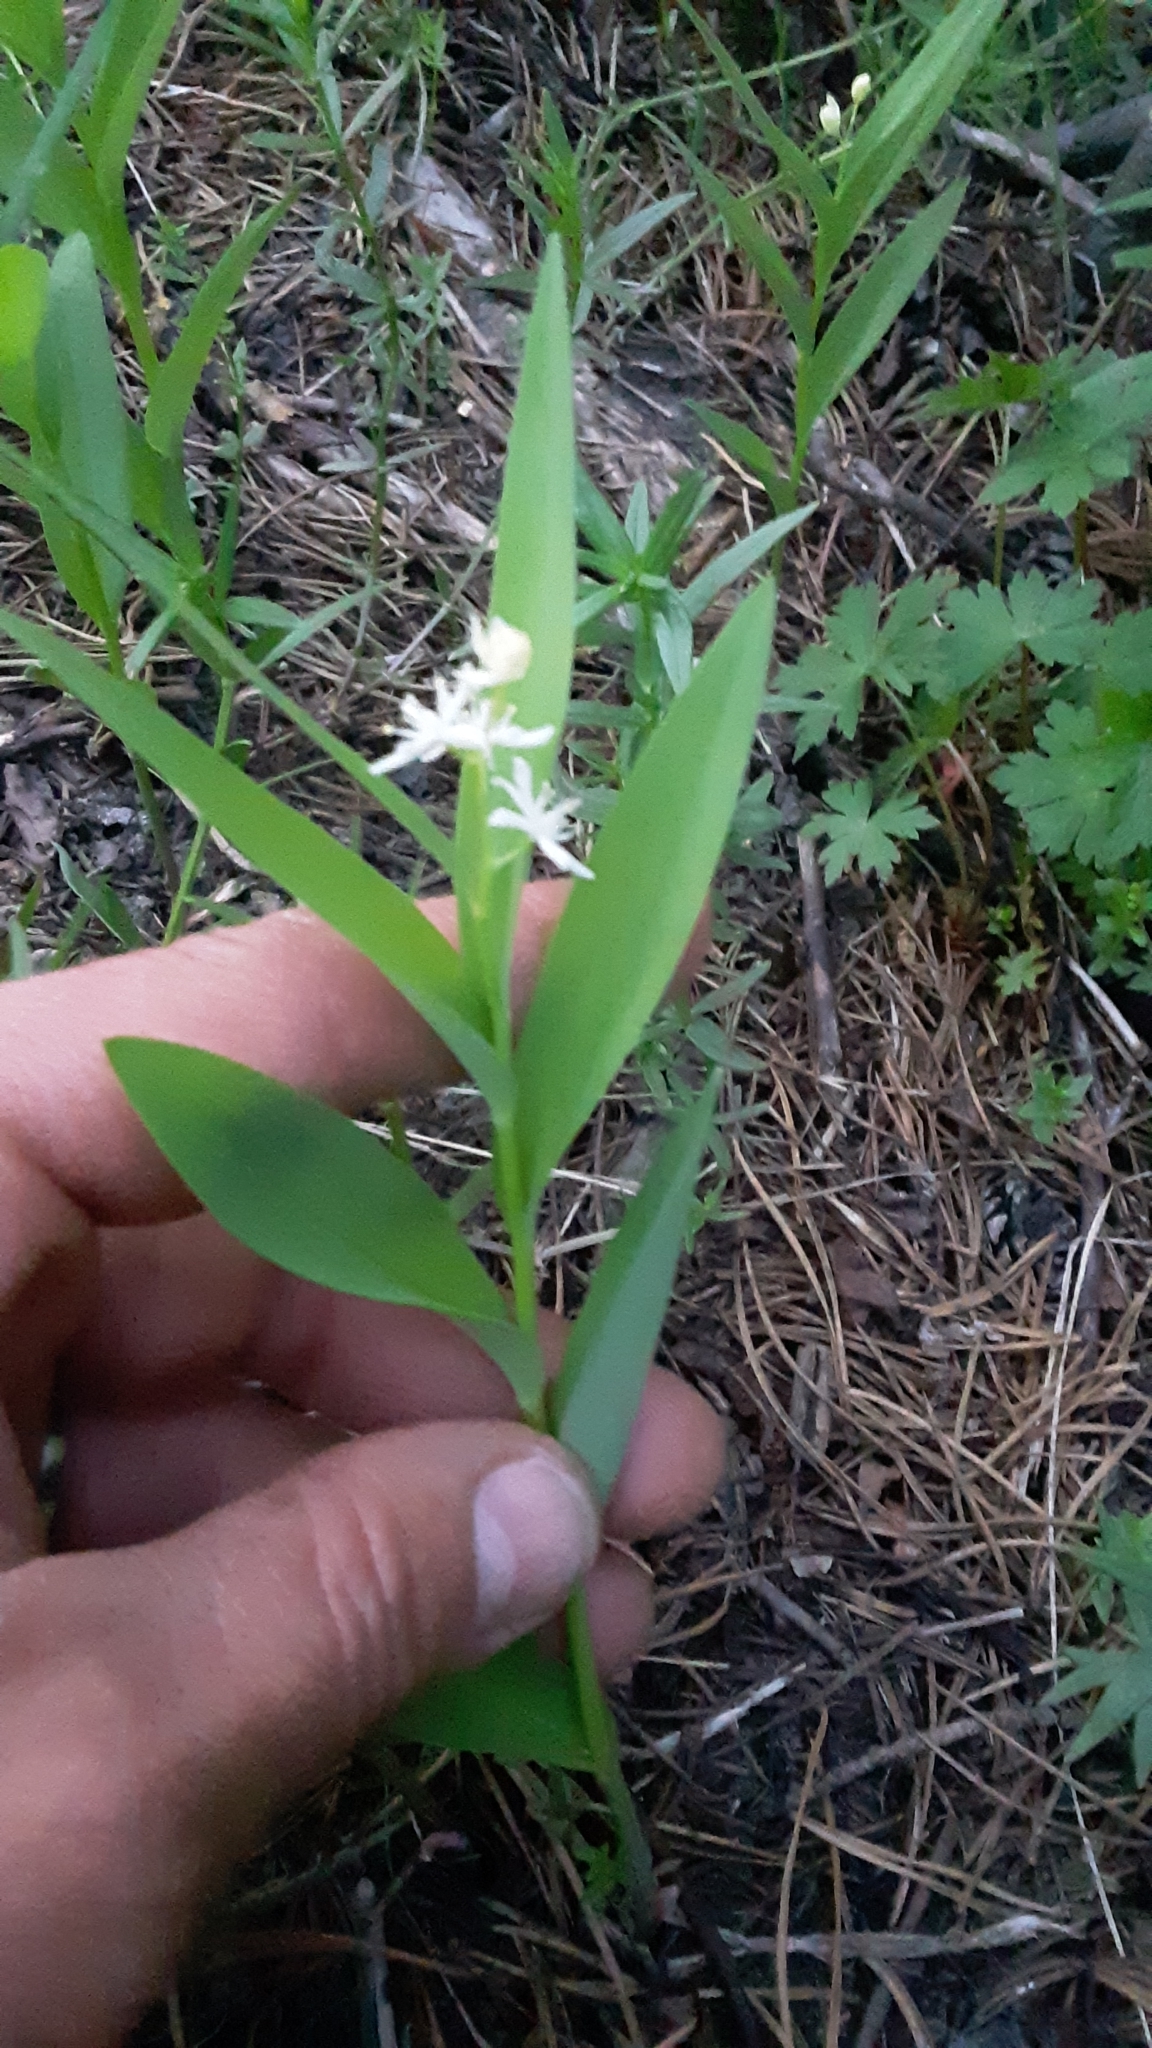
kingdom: Plantae
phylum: Tracheophyta
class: Liliopsida
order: Asparagales
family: Asparagaceae
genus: Maianthemum
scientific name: Maianthemum stellatum
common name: Little false solomon's seal
